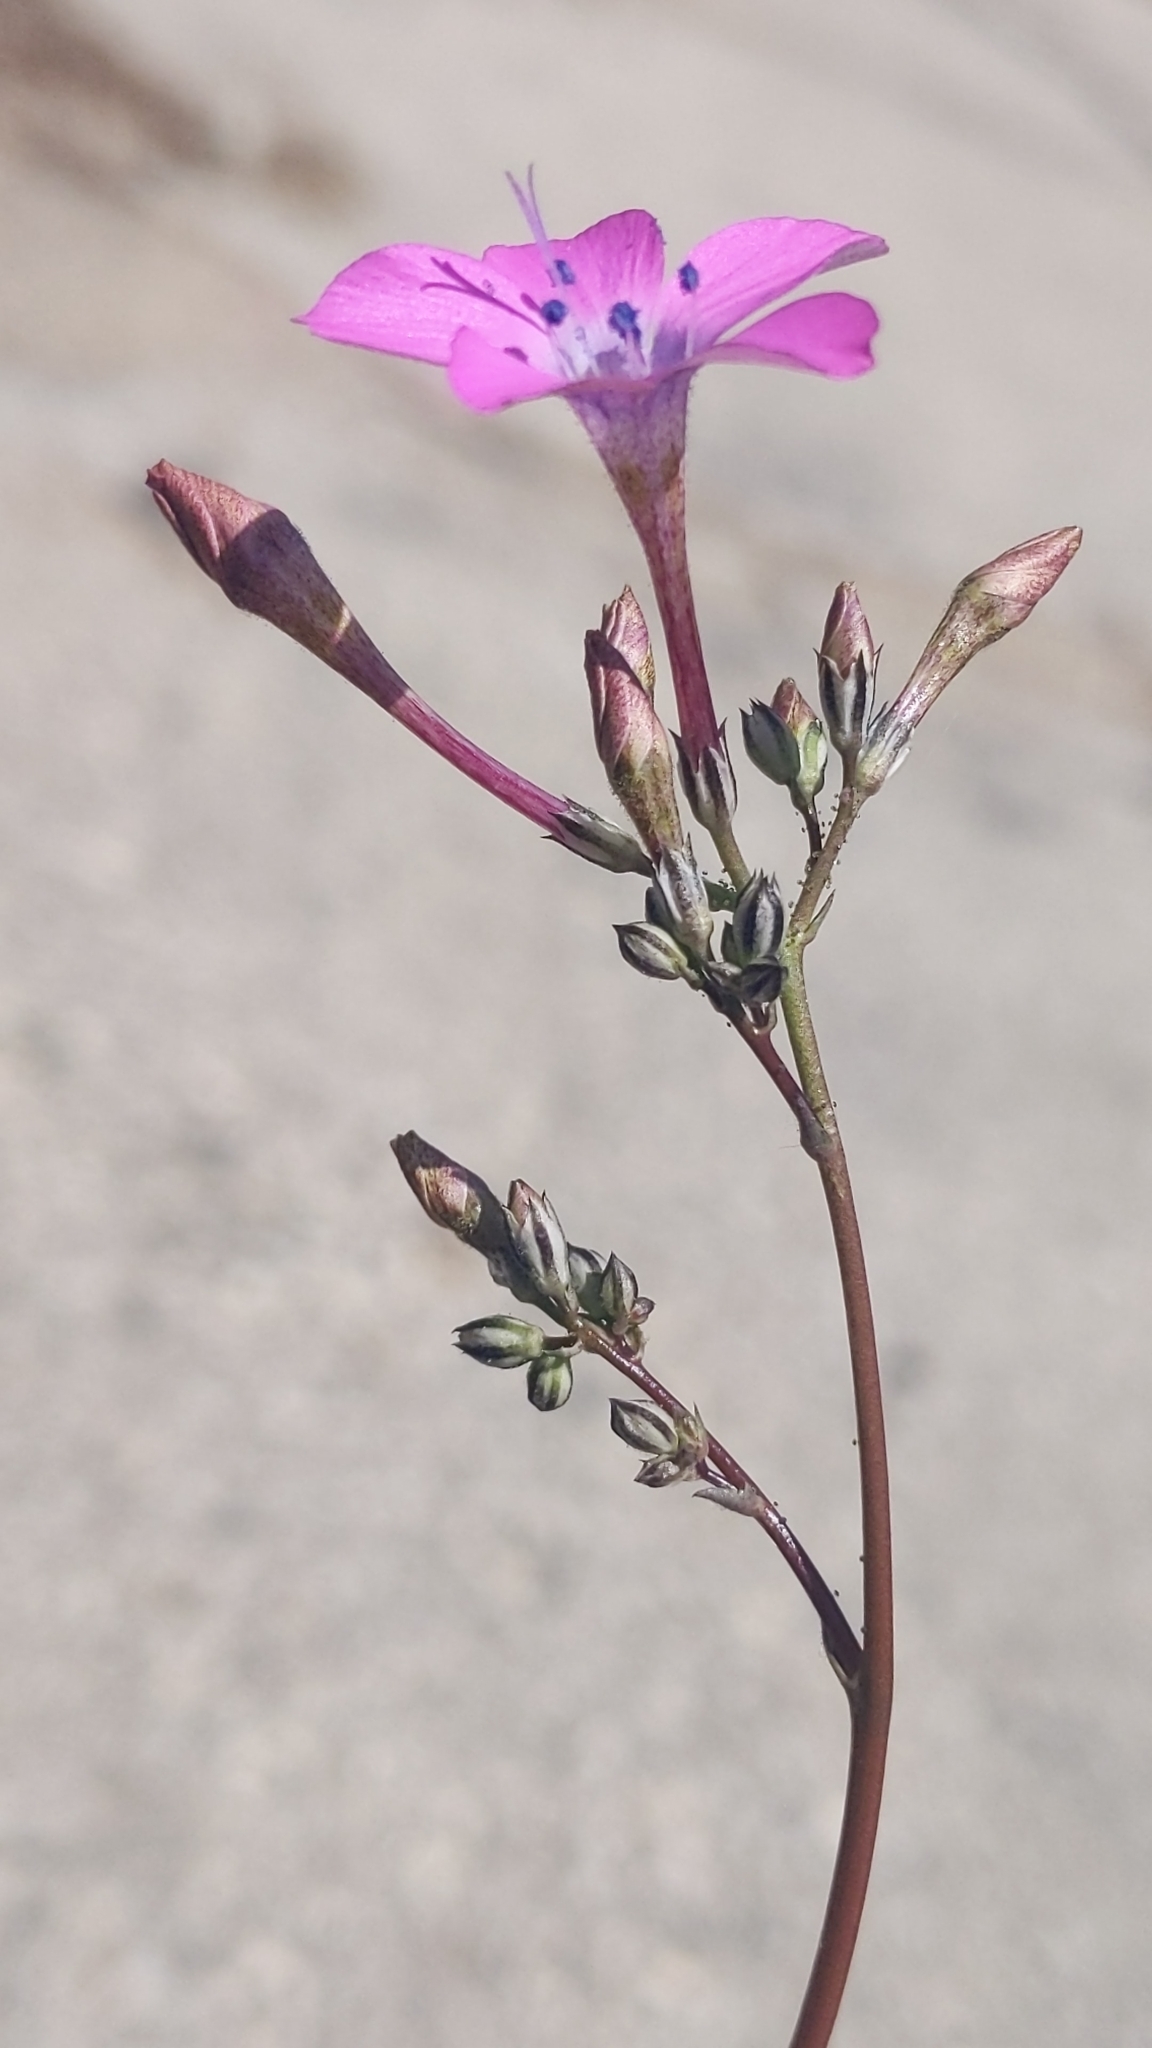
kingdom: Plantae
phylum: Tracheophyta
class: Magnoliopsida
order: Ericales
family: Polemoniaceae
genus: Saltugilia
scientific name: Saltugilia splendens
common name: Grinnell's gilia
